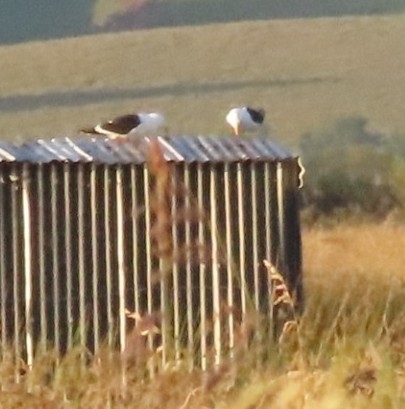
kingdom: Animalia
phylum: Chordata
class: Aves
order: Charadriiformes
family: Laridae
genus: Larus
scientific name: Larus dominicanus
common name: Kelp gull
